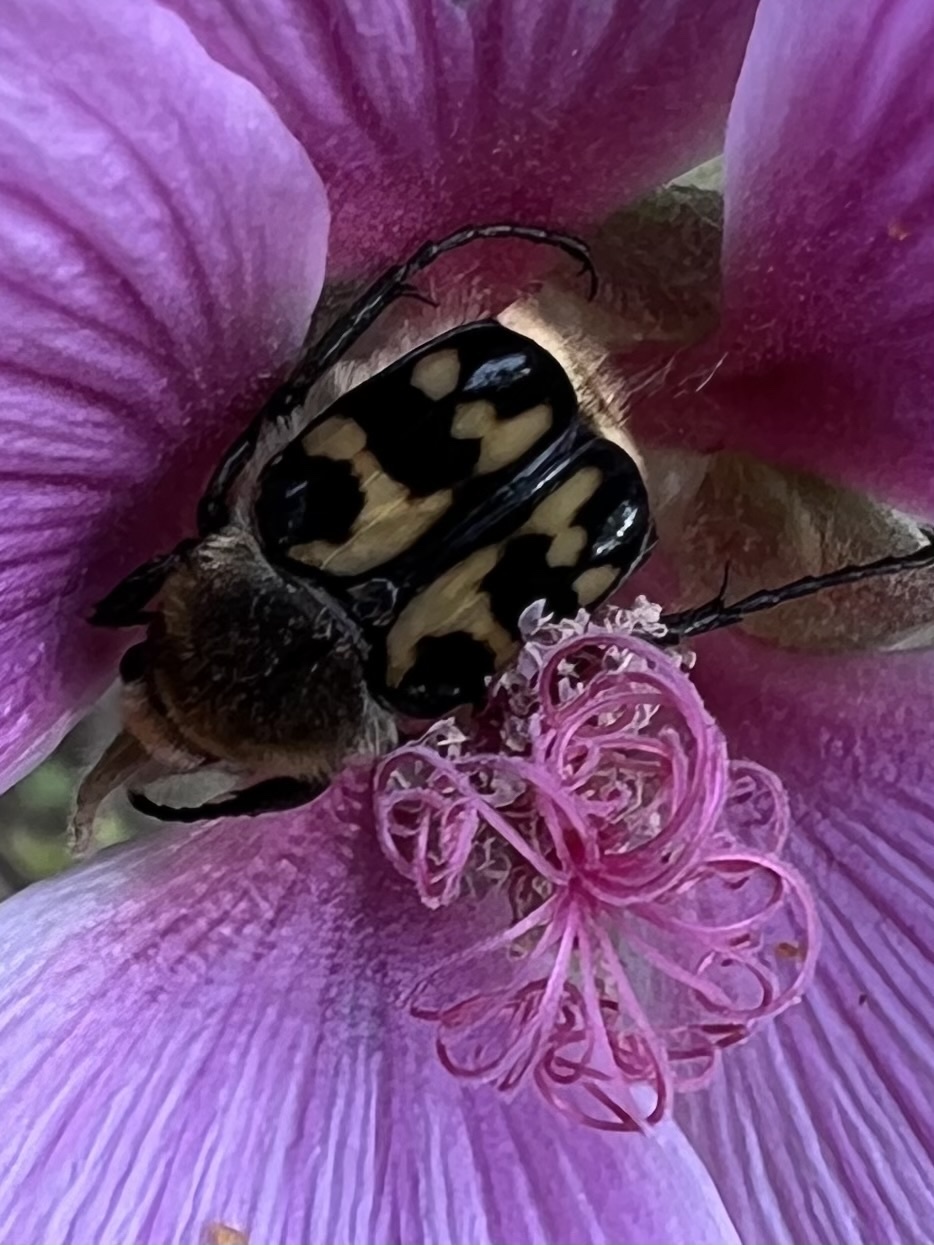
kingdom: Animalia
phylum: Arthropoda
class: Insecta
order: Coleoptera
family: Scarabaeidae
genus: Trichius
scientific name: Trichius gallicus
